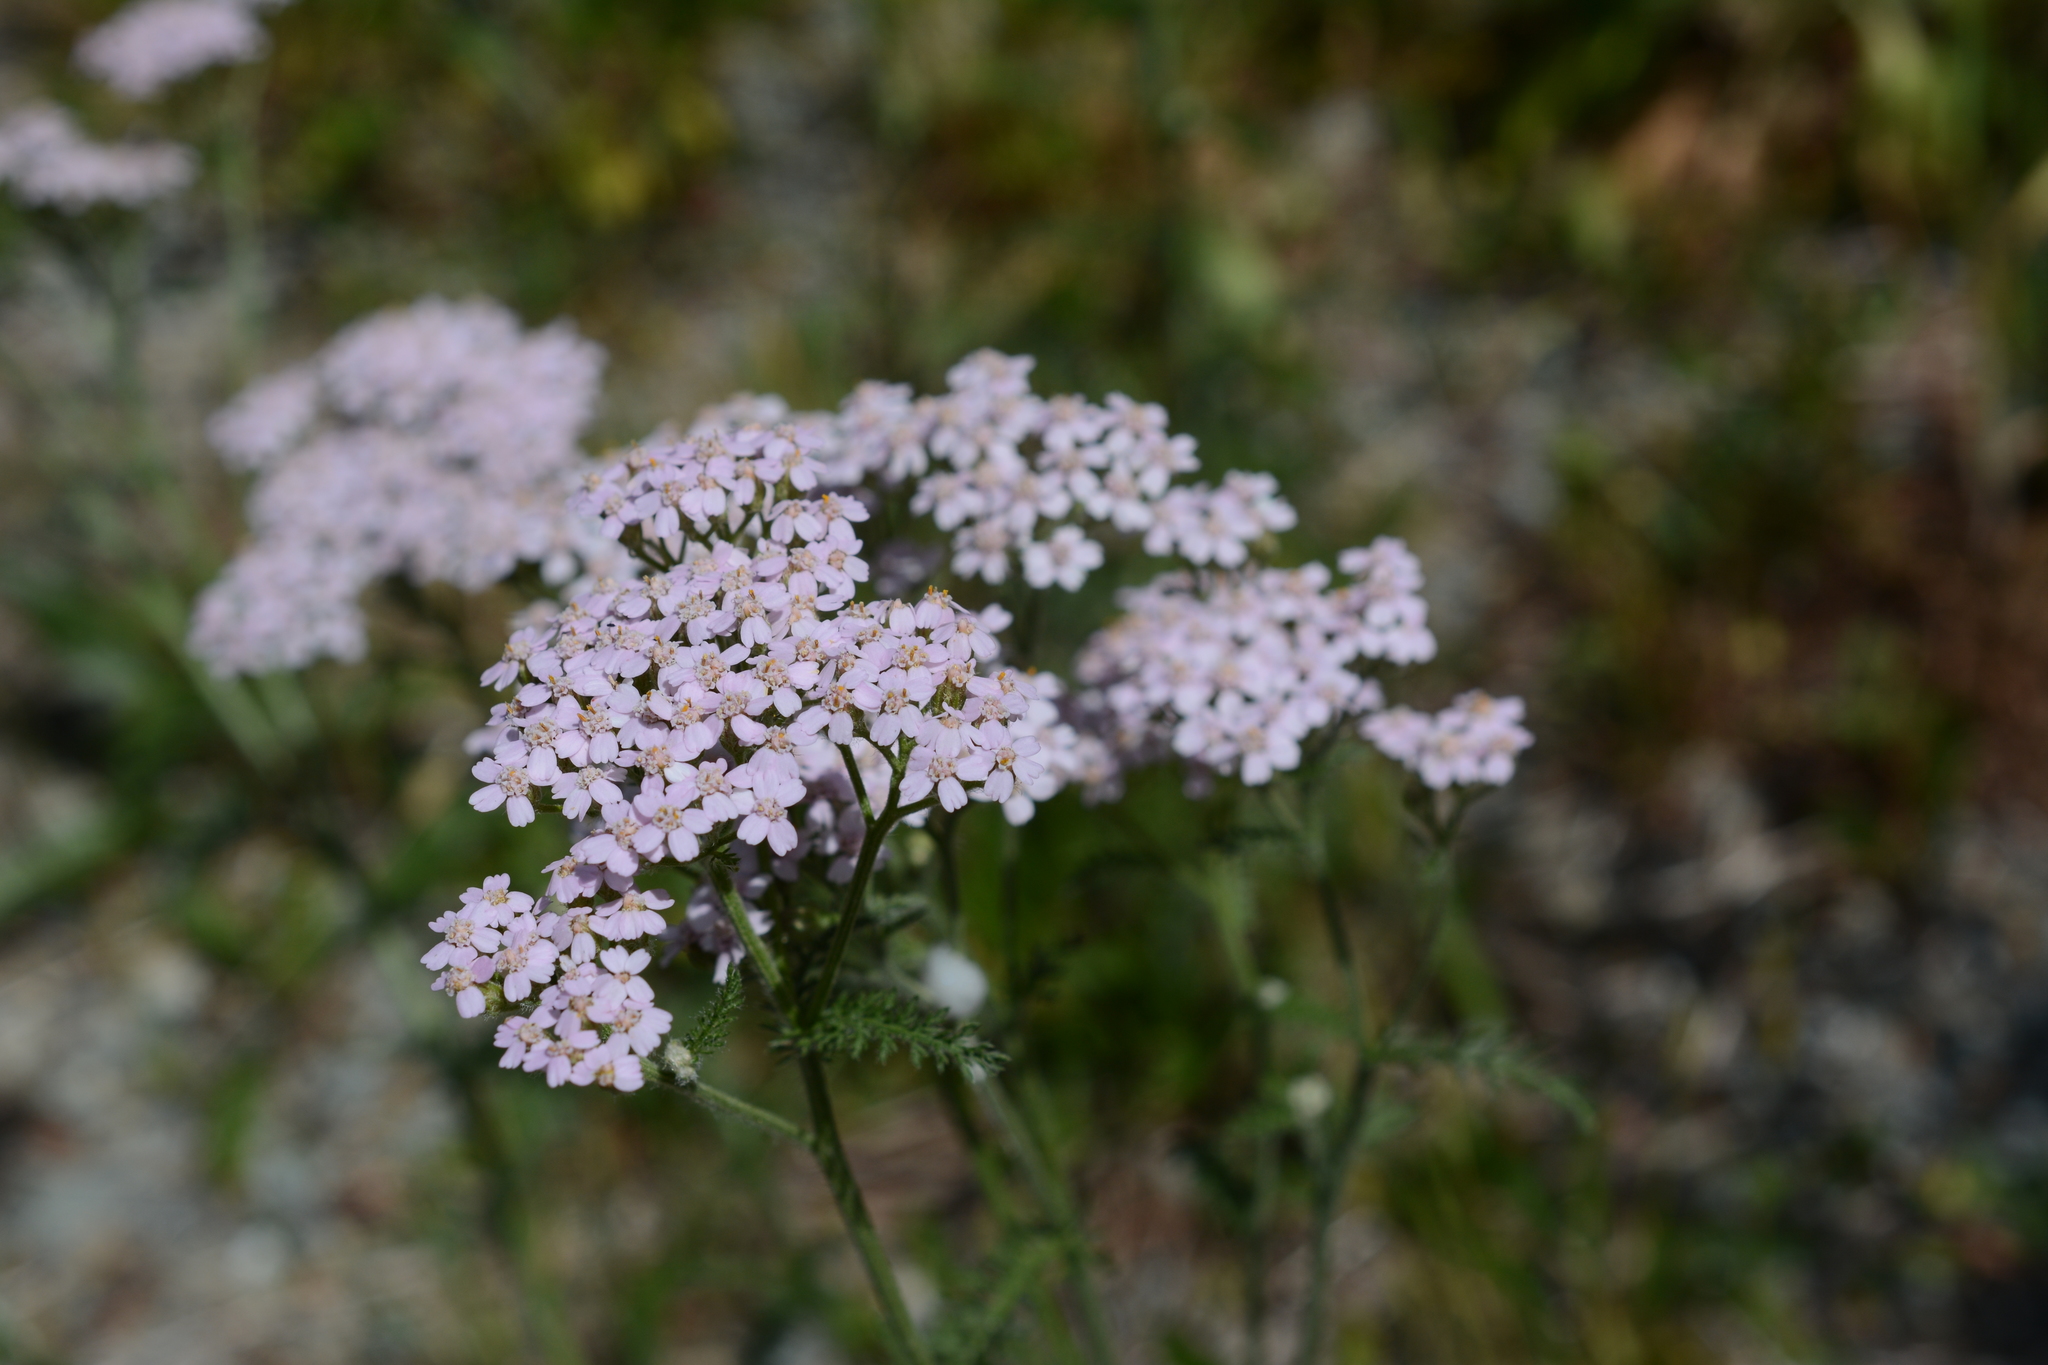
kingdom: Plantae
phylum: Tracheophyta
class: Magnoliopsida
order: Asterales
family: Asteraceae
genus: Achillea
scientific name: Achillea millefolium
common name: Yarrow
